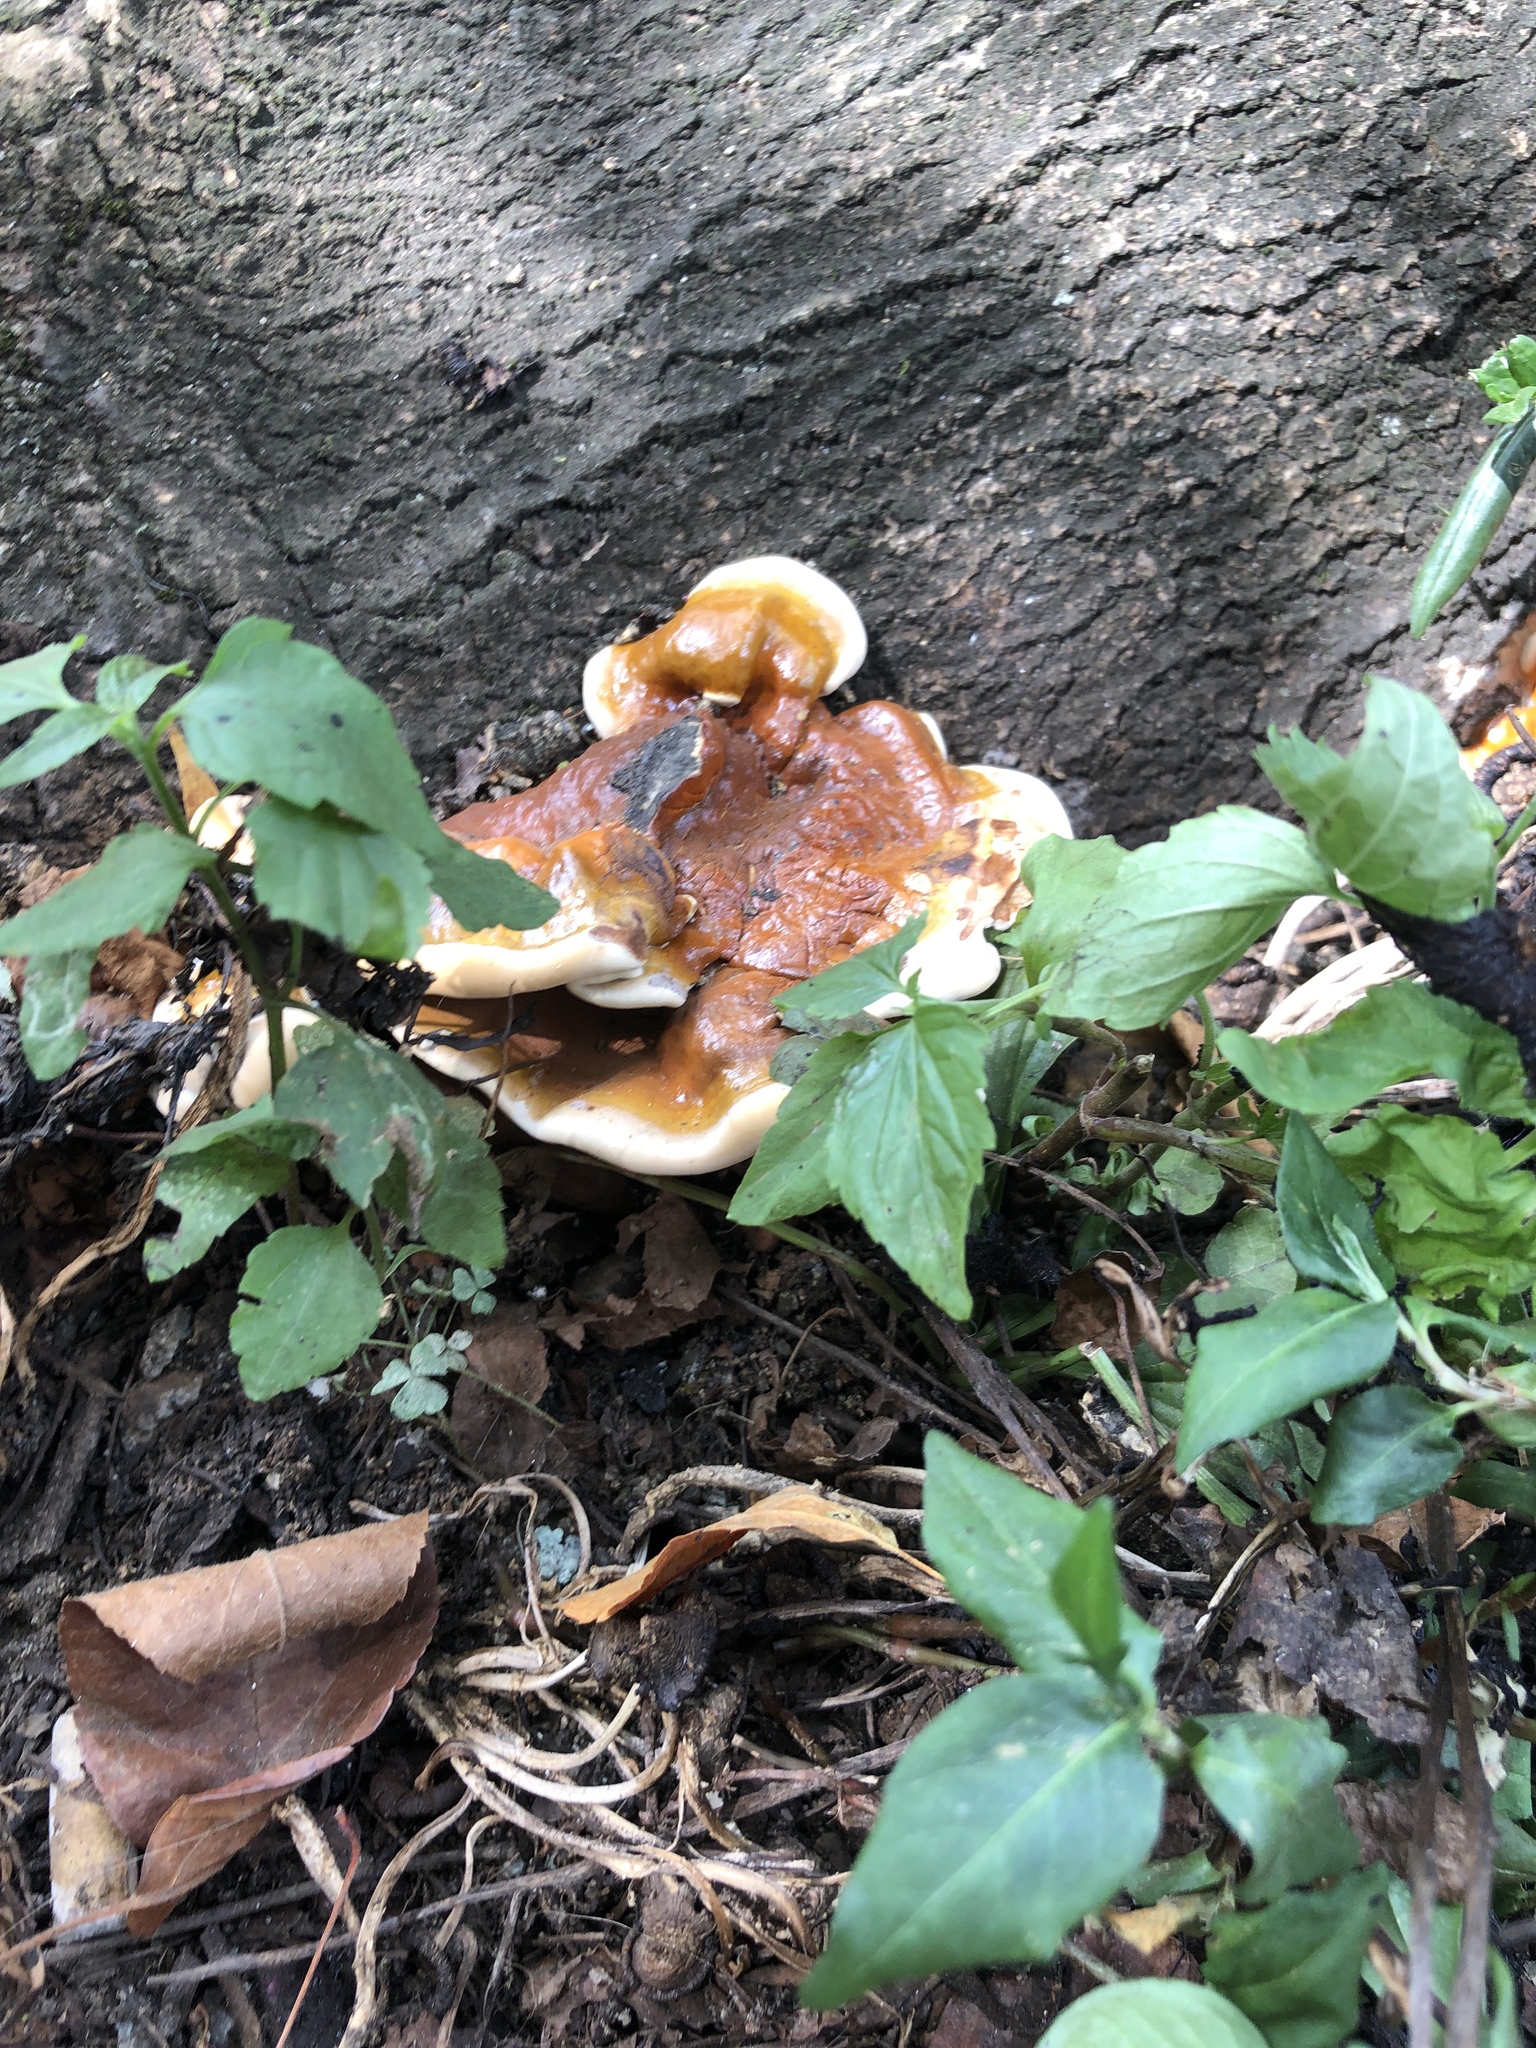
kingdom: Fungi
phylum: Basidiomycota
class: Agaricomycetes
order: Polyporales
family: Polyporaceae
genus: Ganoderma
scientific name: Ganoderma resinaceum
